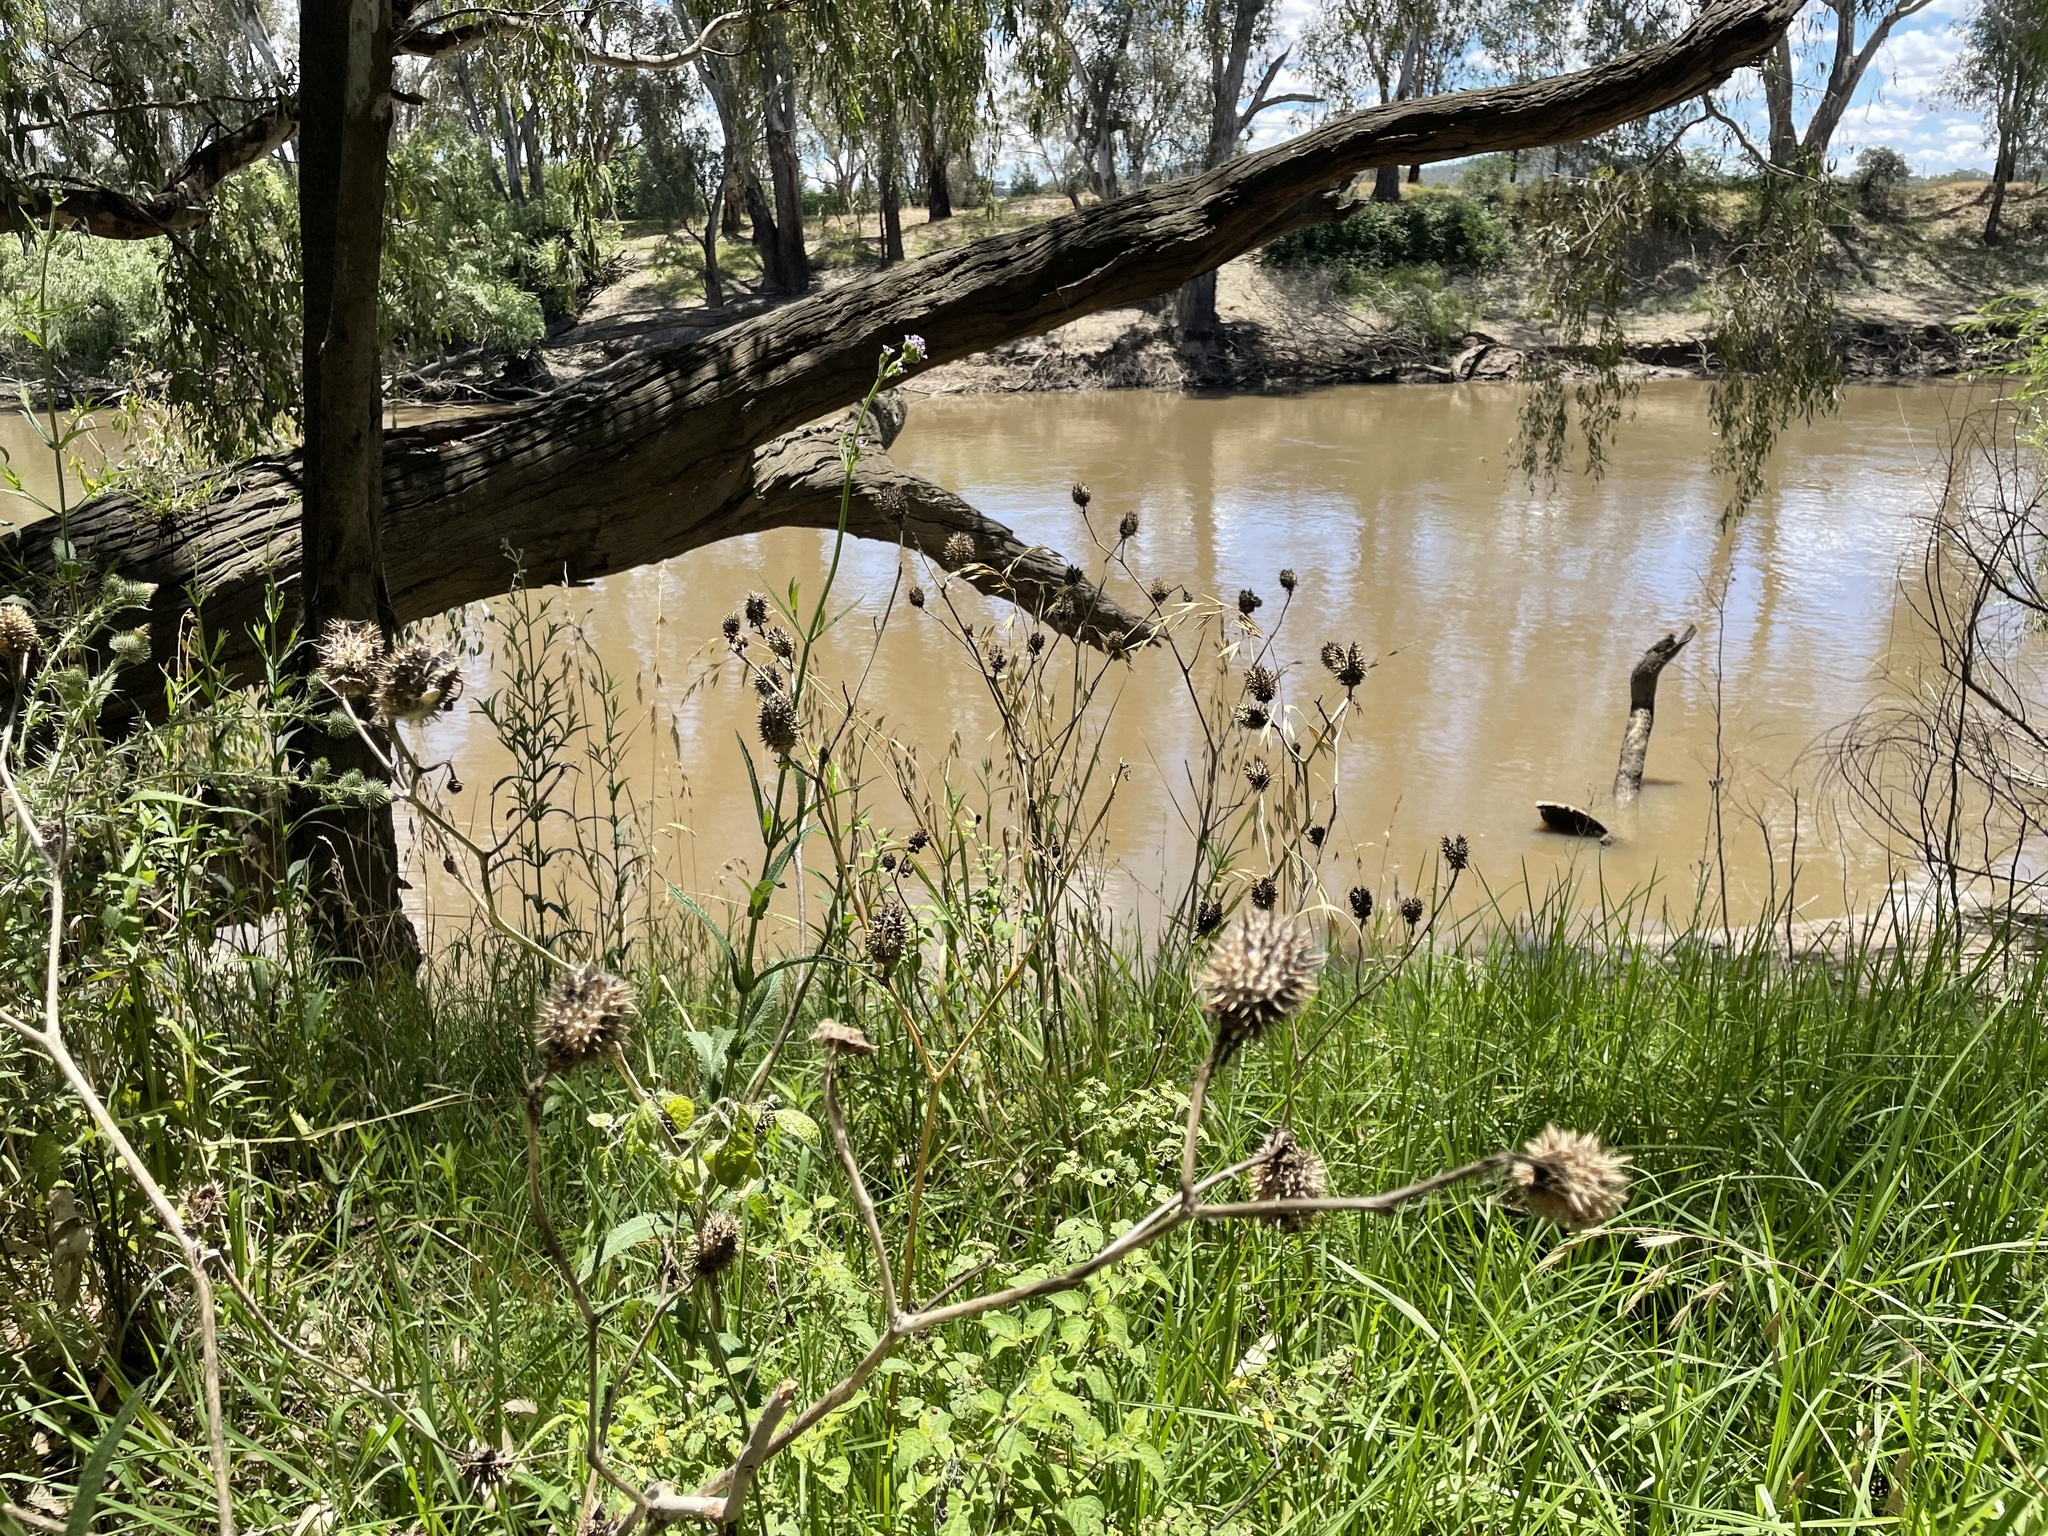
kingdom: Plantae
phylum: Tracheophyta
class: Magnoliopsida
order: Solanales
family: Solanaceae
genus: Datura
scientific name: Datura stramonium
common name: Thorn-apple
